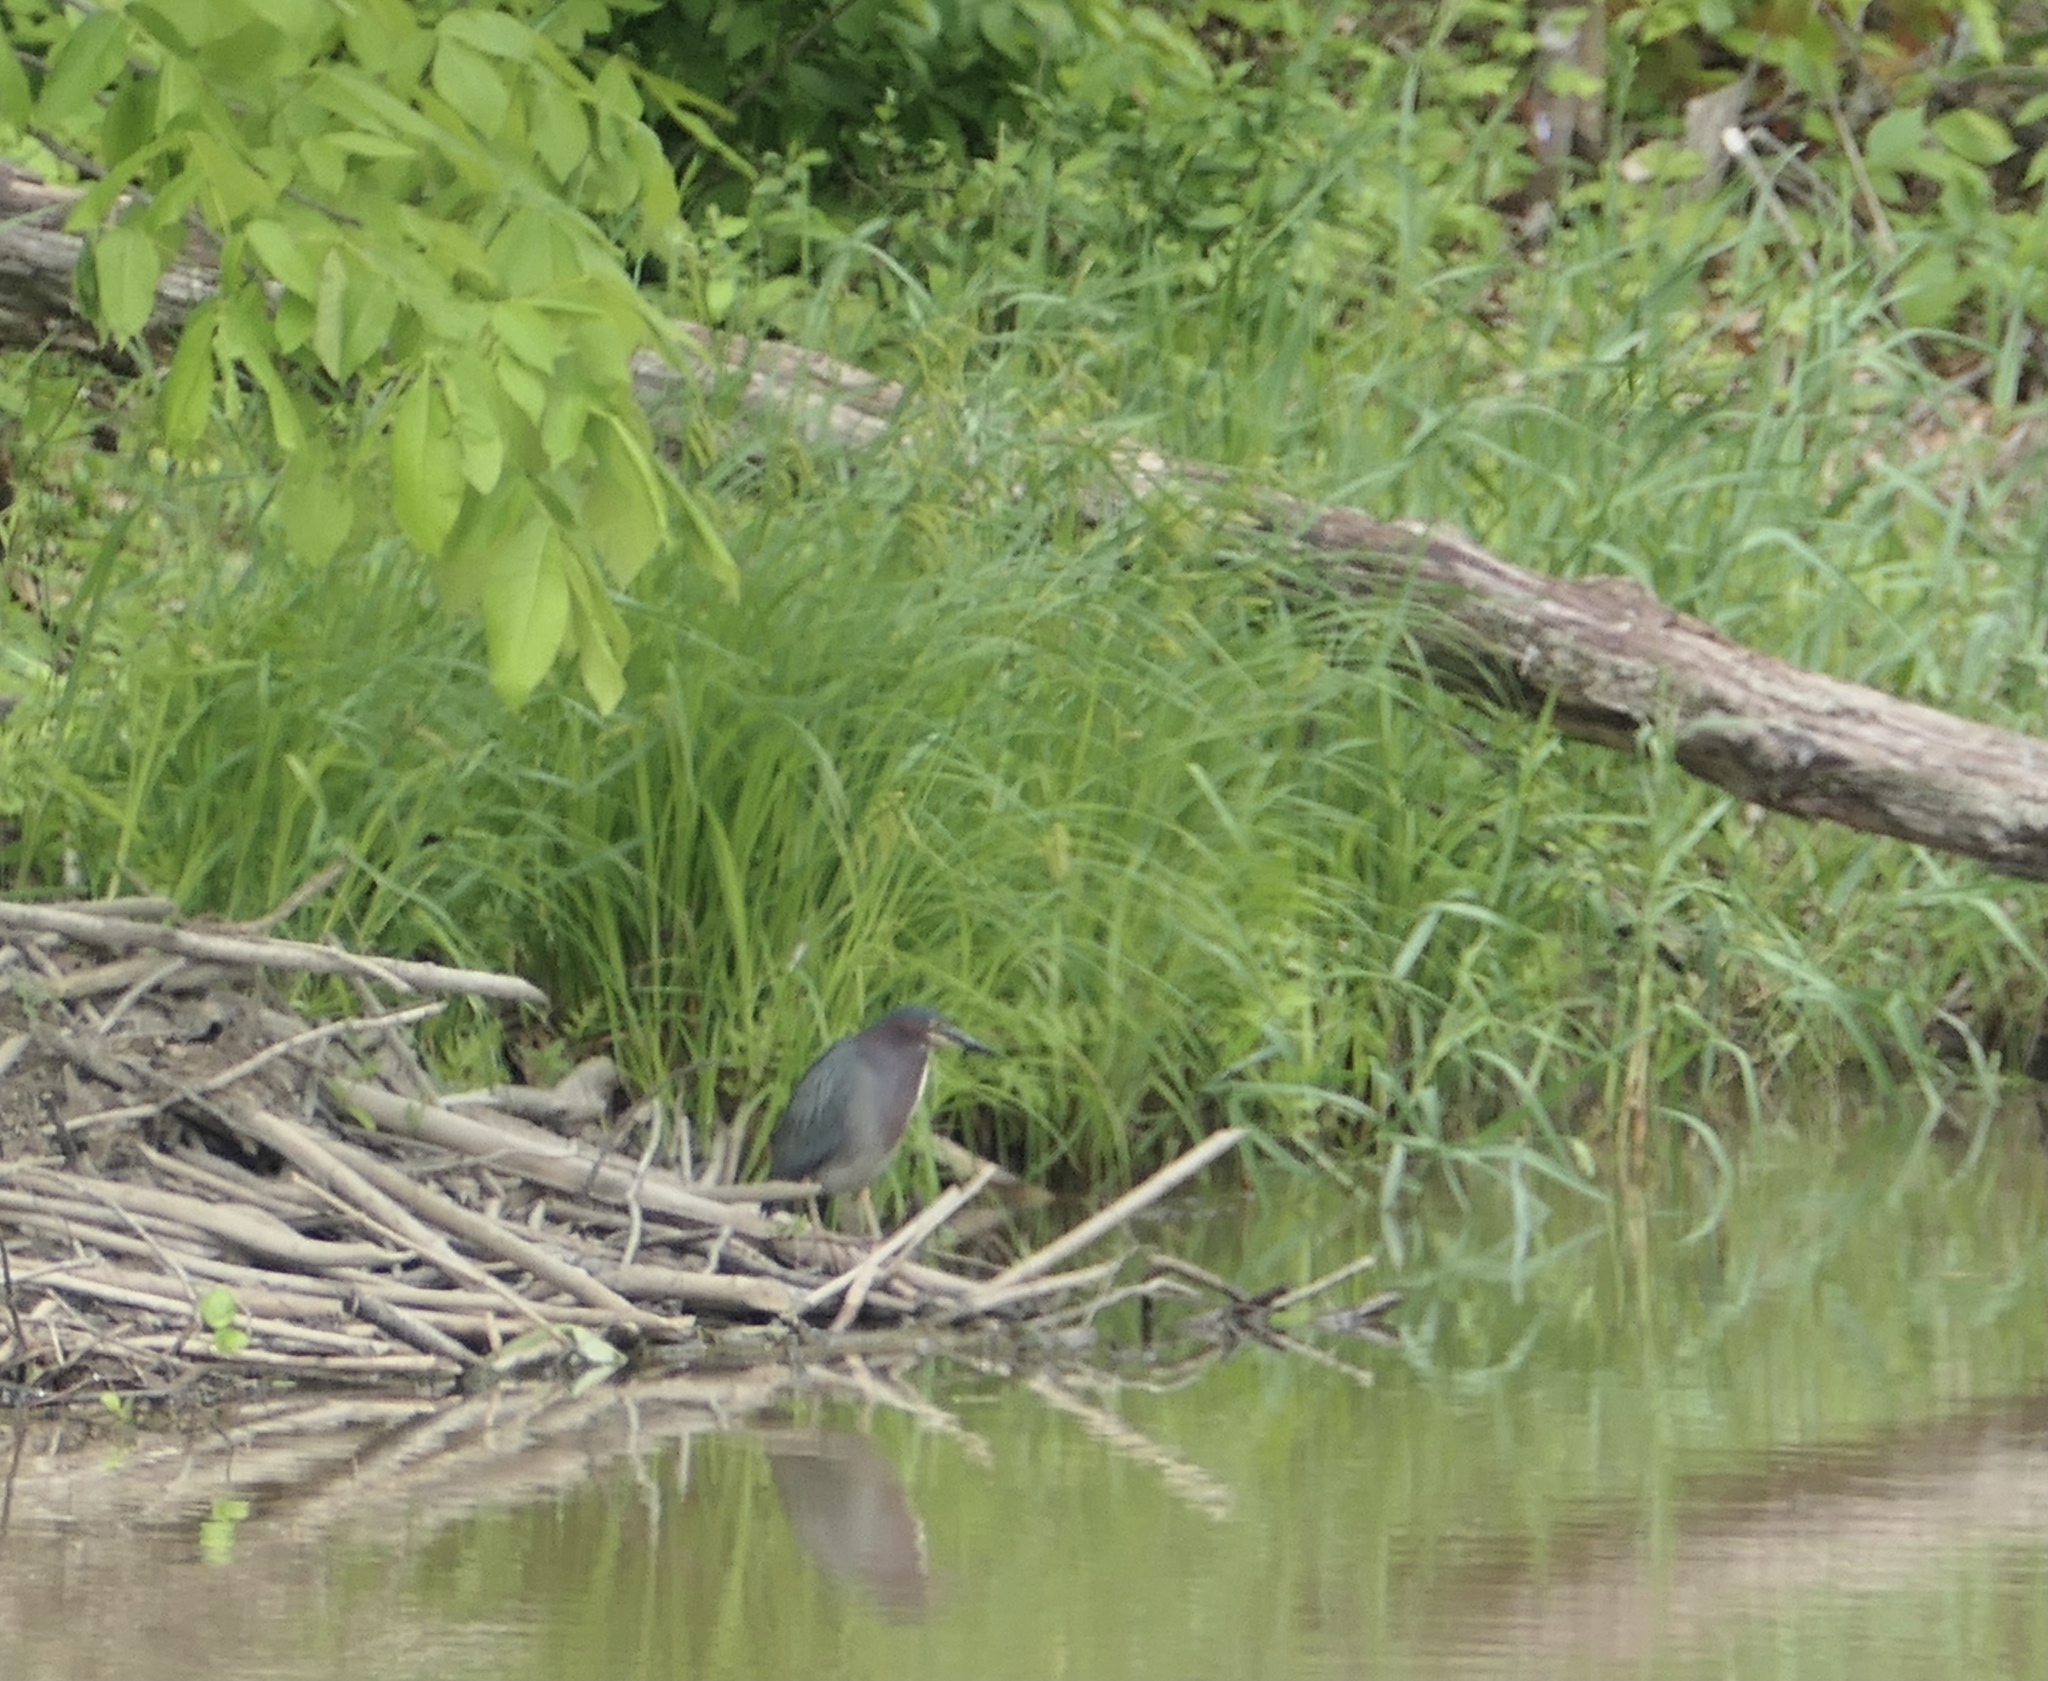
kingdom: Animalia
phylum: Chordata
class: Aves
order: Pelecaniformes
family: Ardeidae
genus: Butorides
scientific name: Butorides virescens
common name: Green heron
